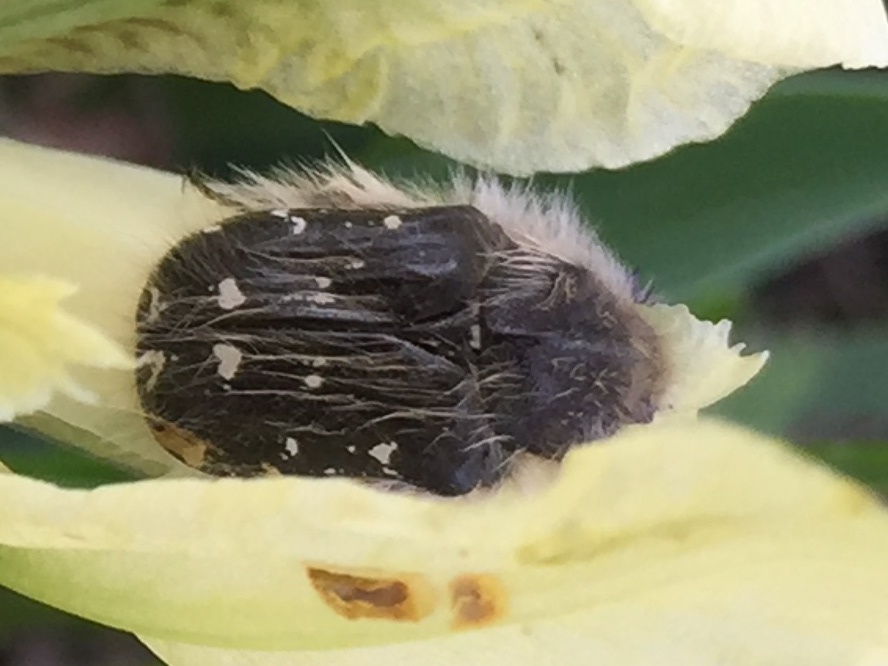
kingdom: Animalia
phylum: Arthropoda
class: Insecta
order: Coleoptera
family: Scarabaeidae
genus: Tropinota
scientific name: Tropinota hirta
